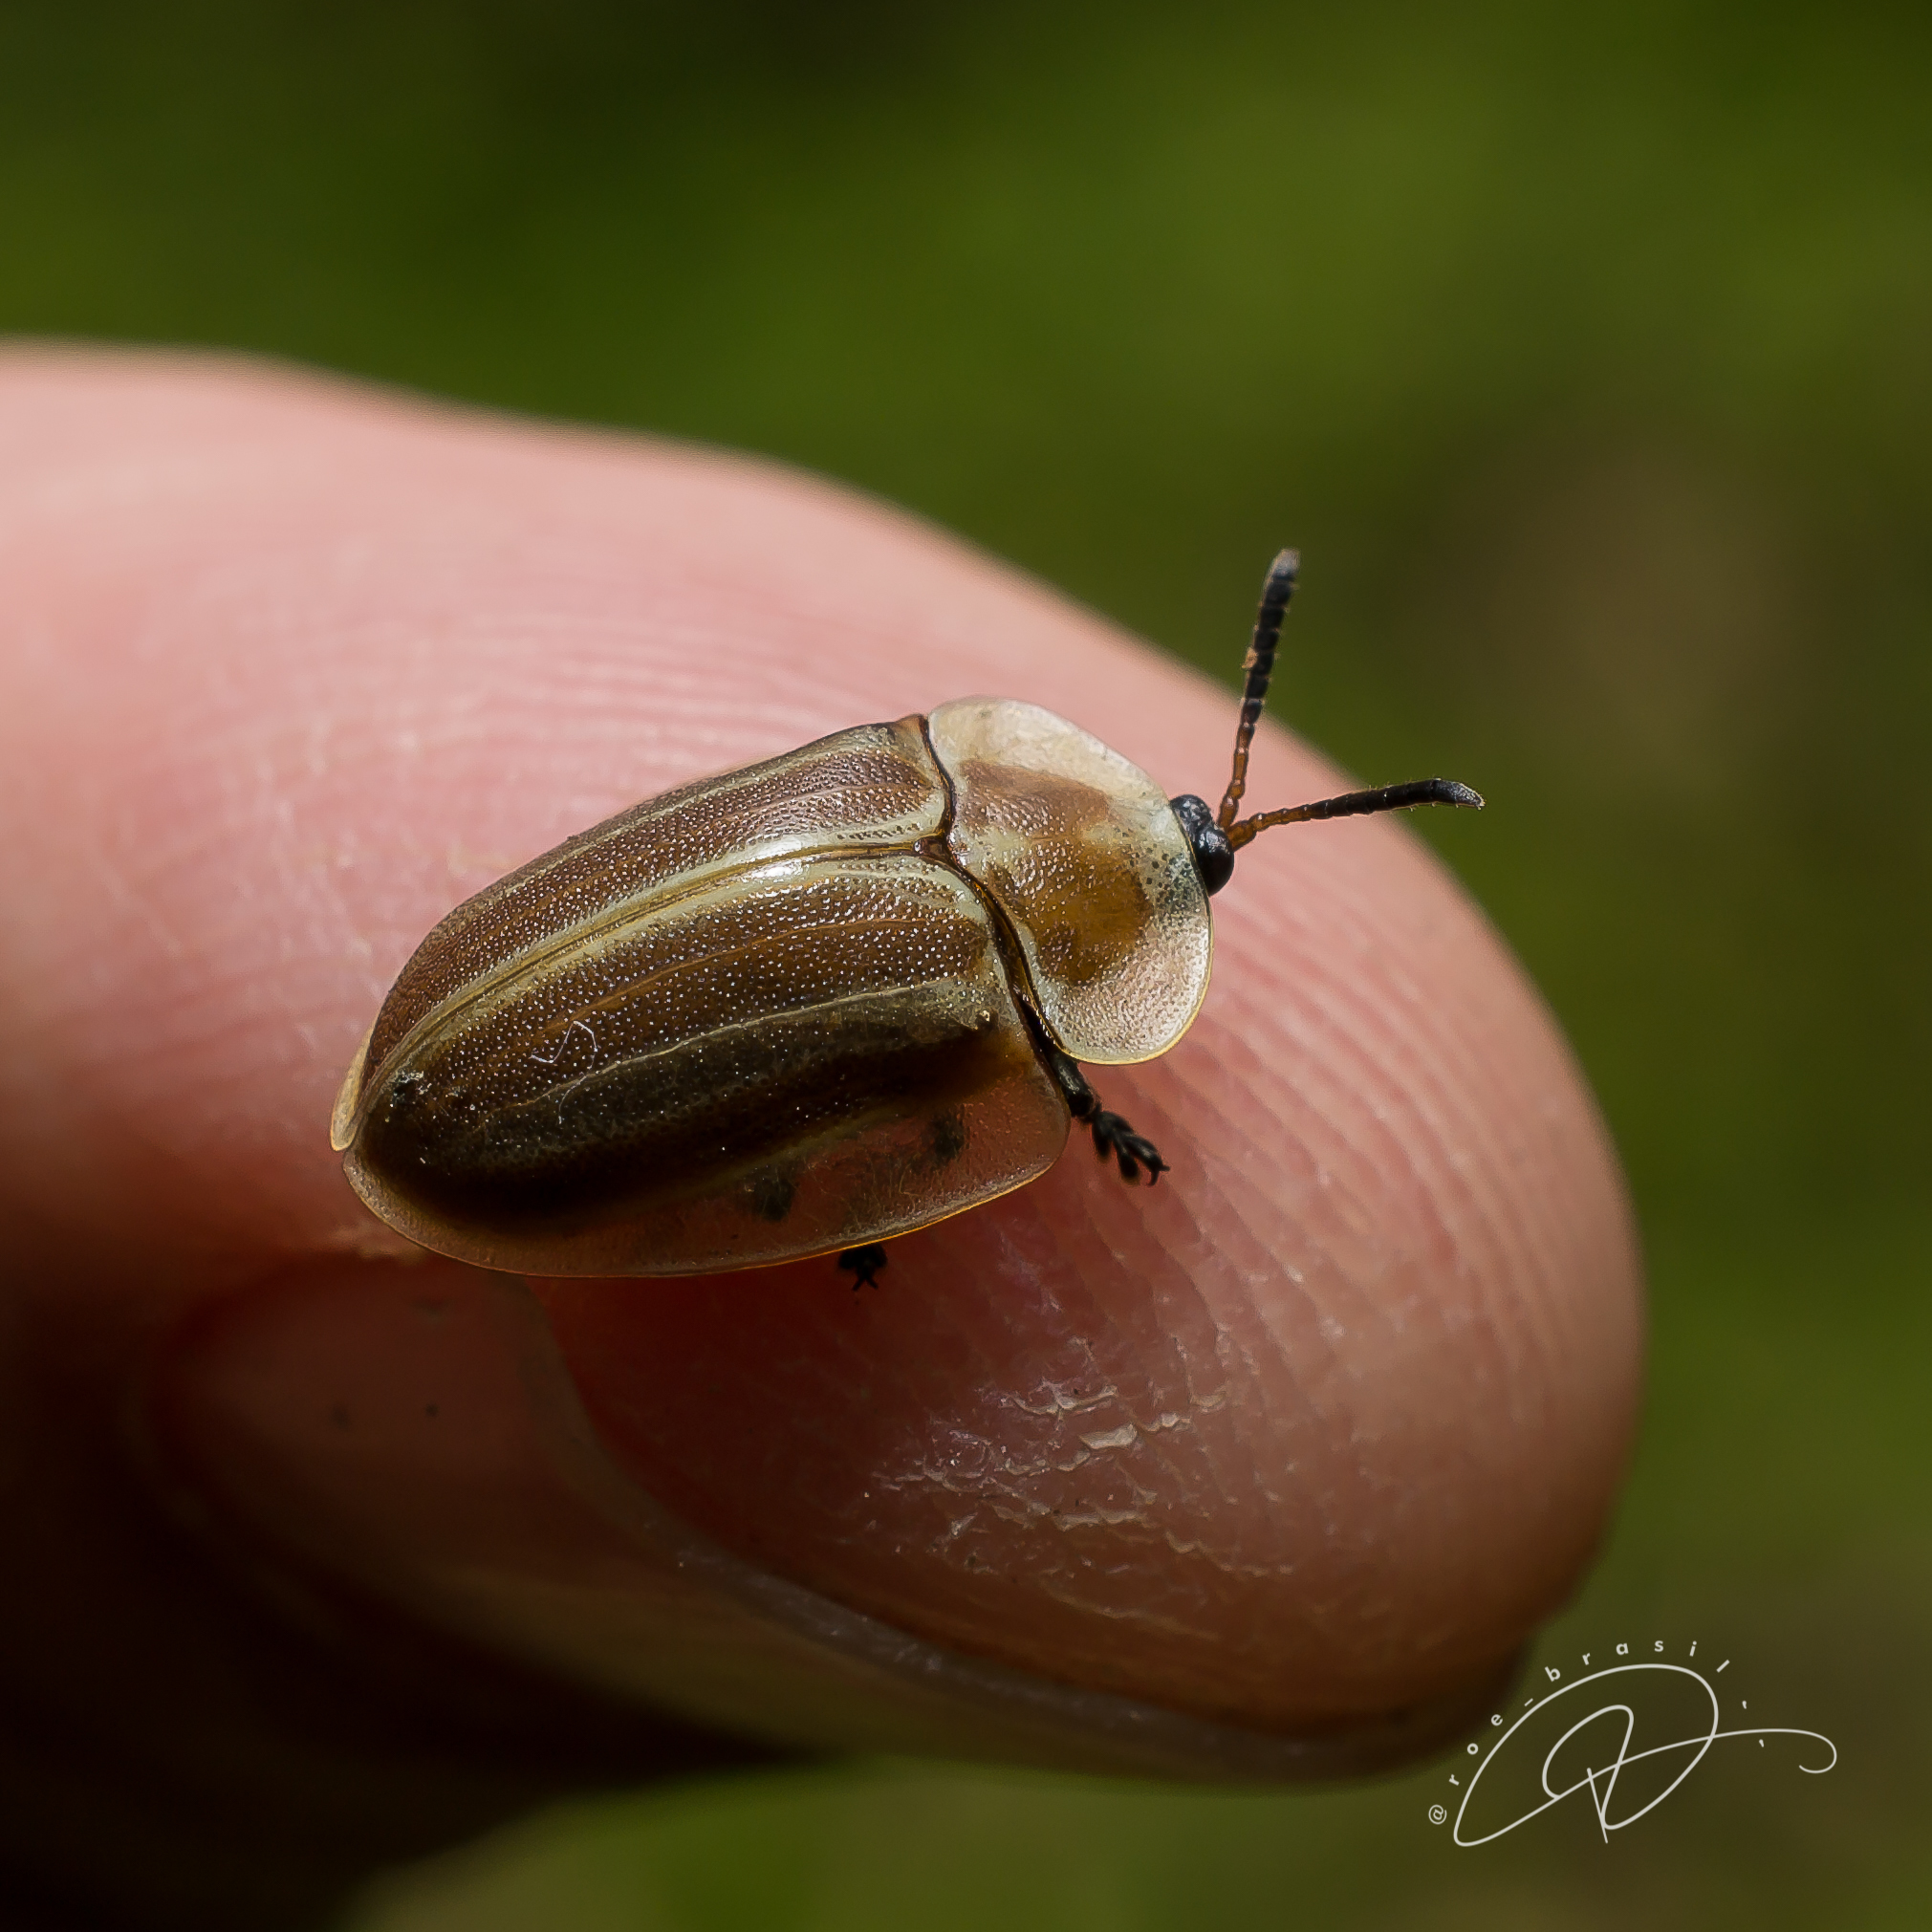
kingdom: Animalia
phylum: Arthropoda
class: Insecta
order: Coleoptera
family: Chrysomelidae
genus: Anacassis
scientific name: Anacassis fuscata
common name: Seepwillow flea beetle
